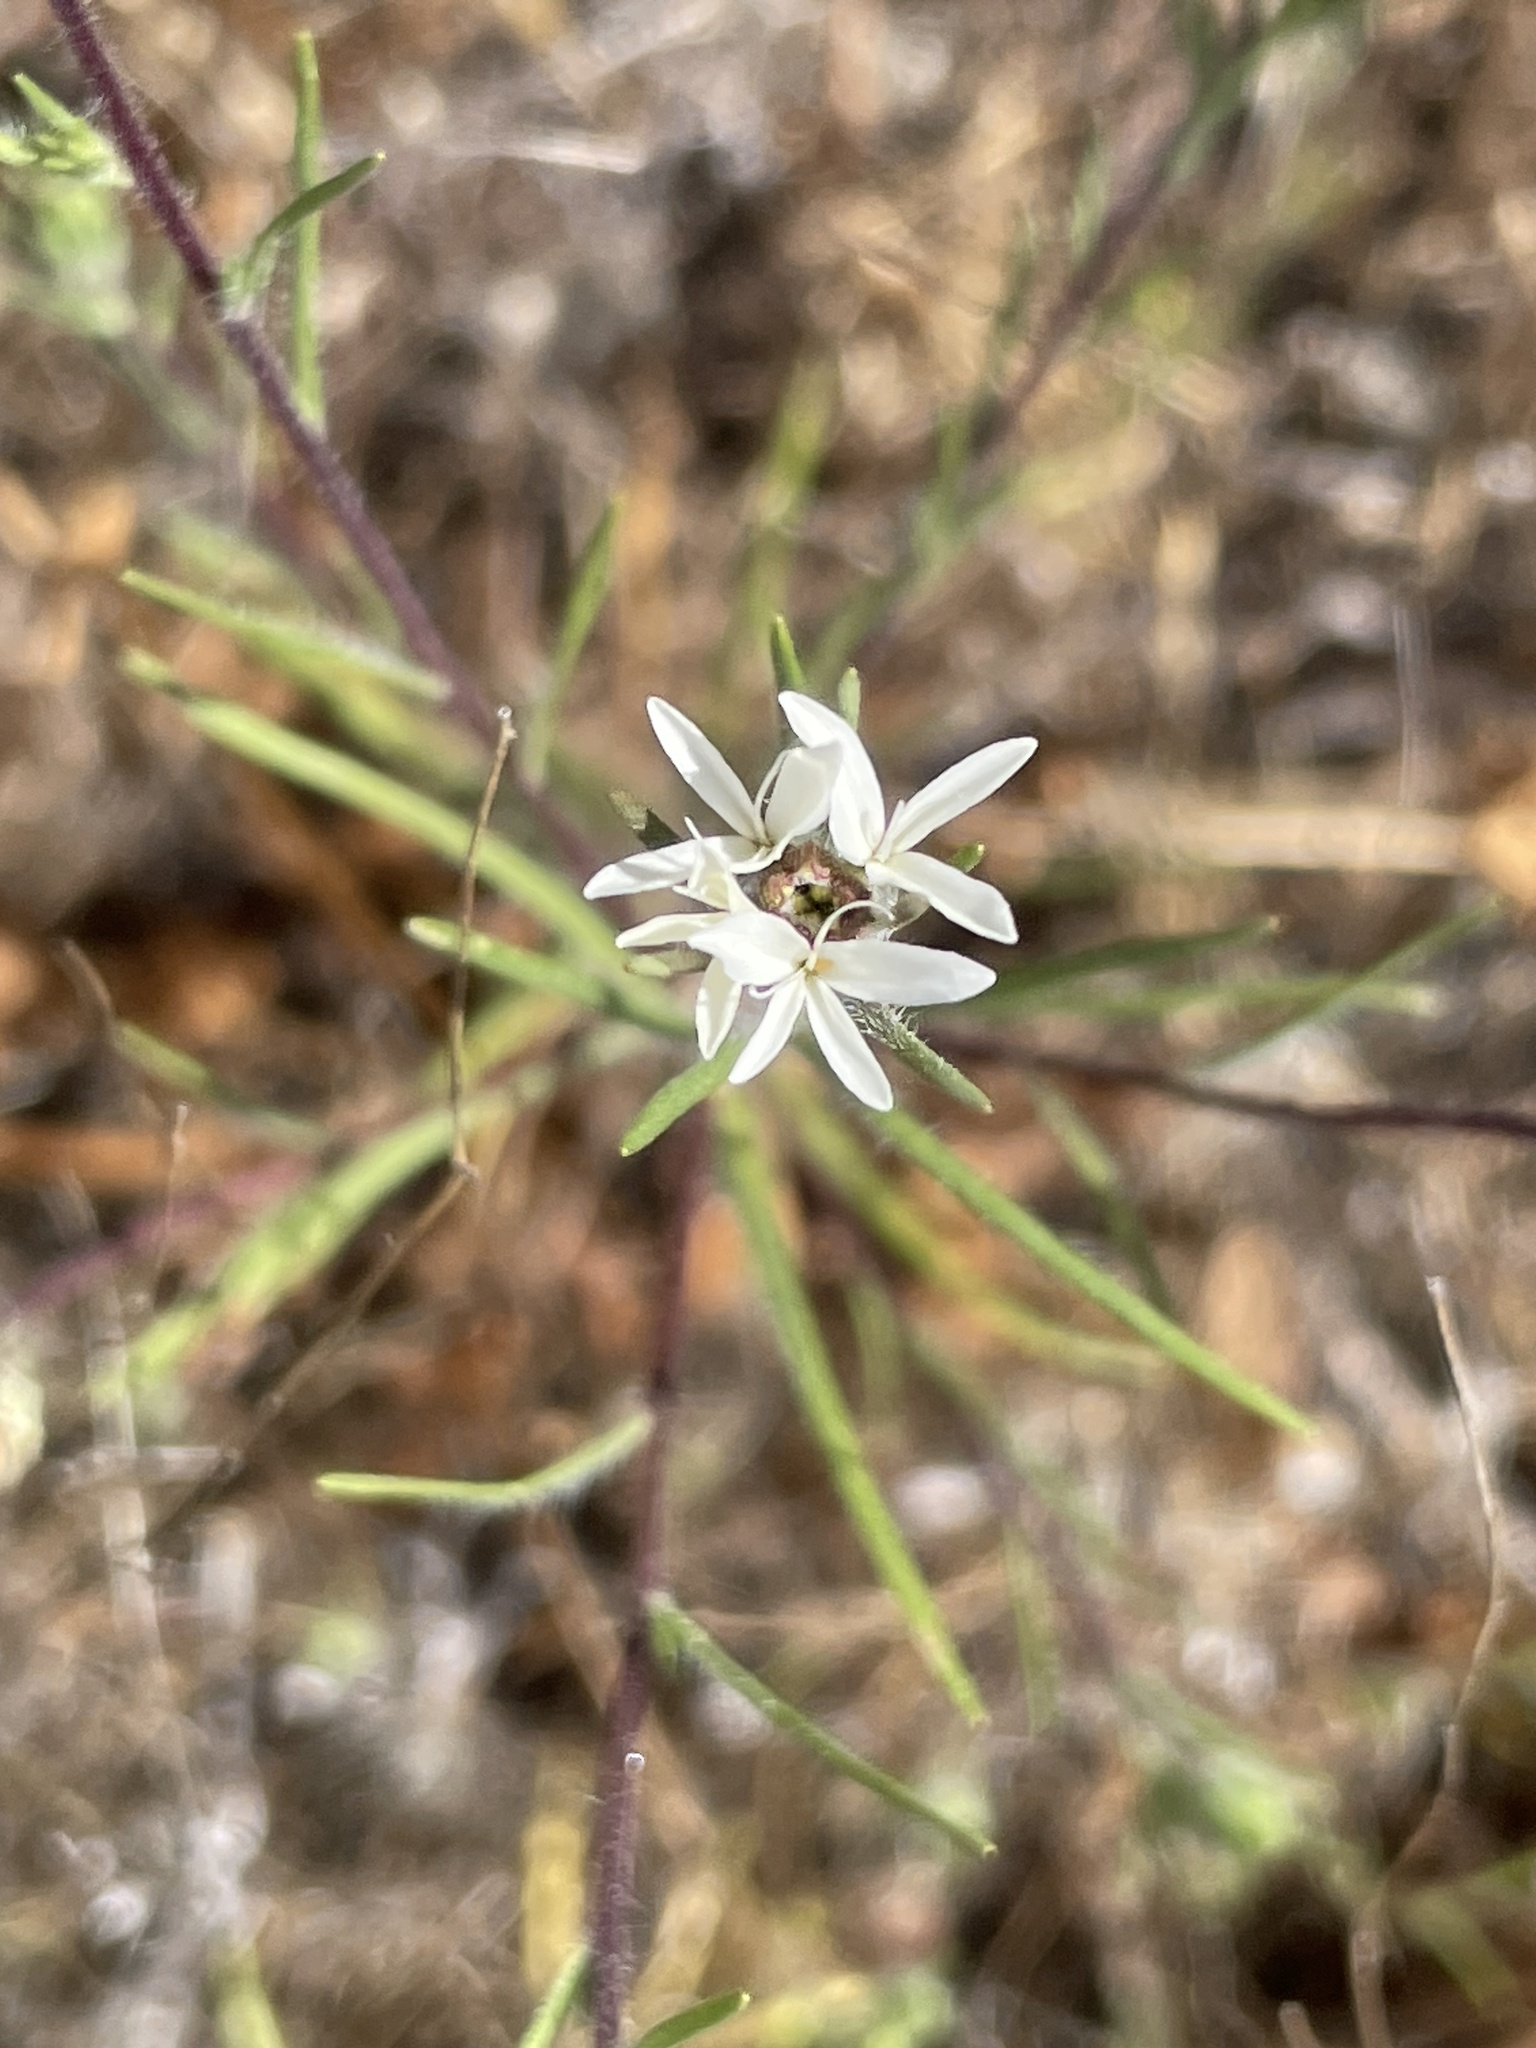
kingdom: Plantae
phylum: Tracheophyta
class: Magnoliopsida
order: Asterales
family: Asteraceae
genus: Osmadenia
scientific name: Osmadenia tenella
